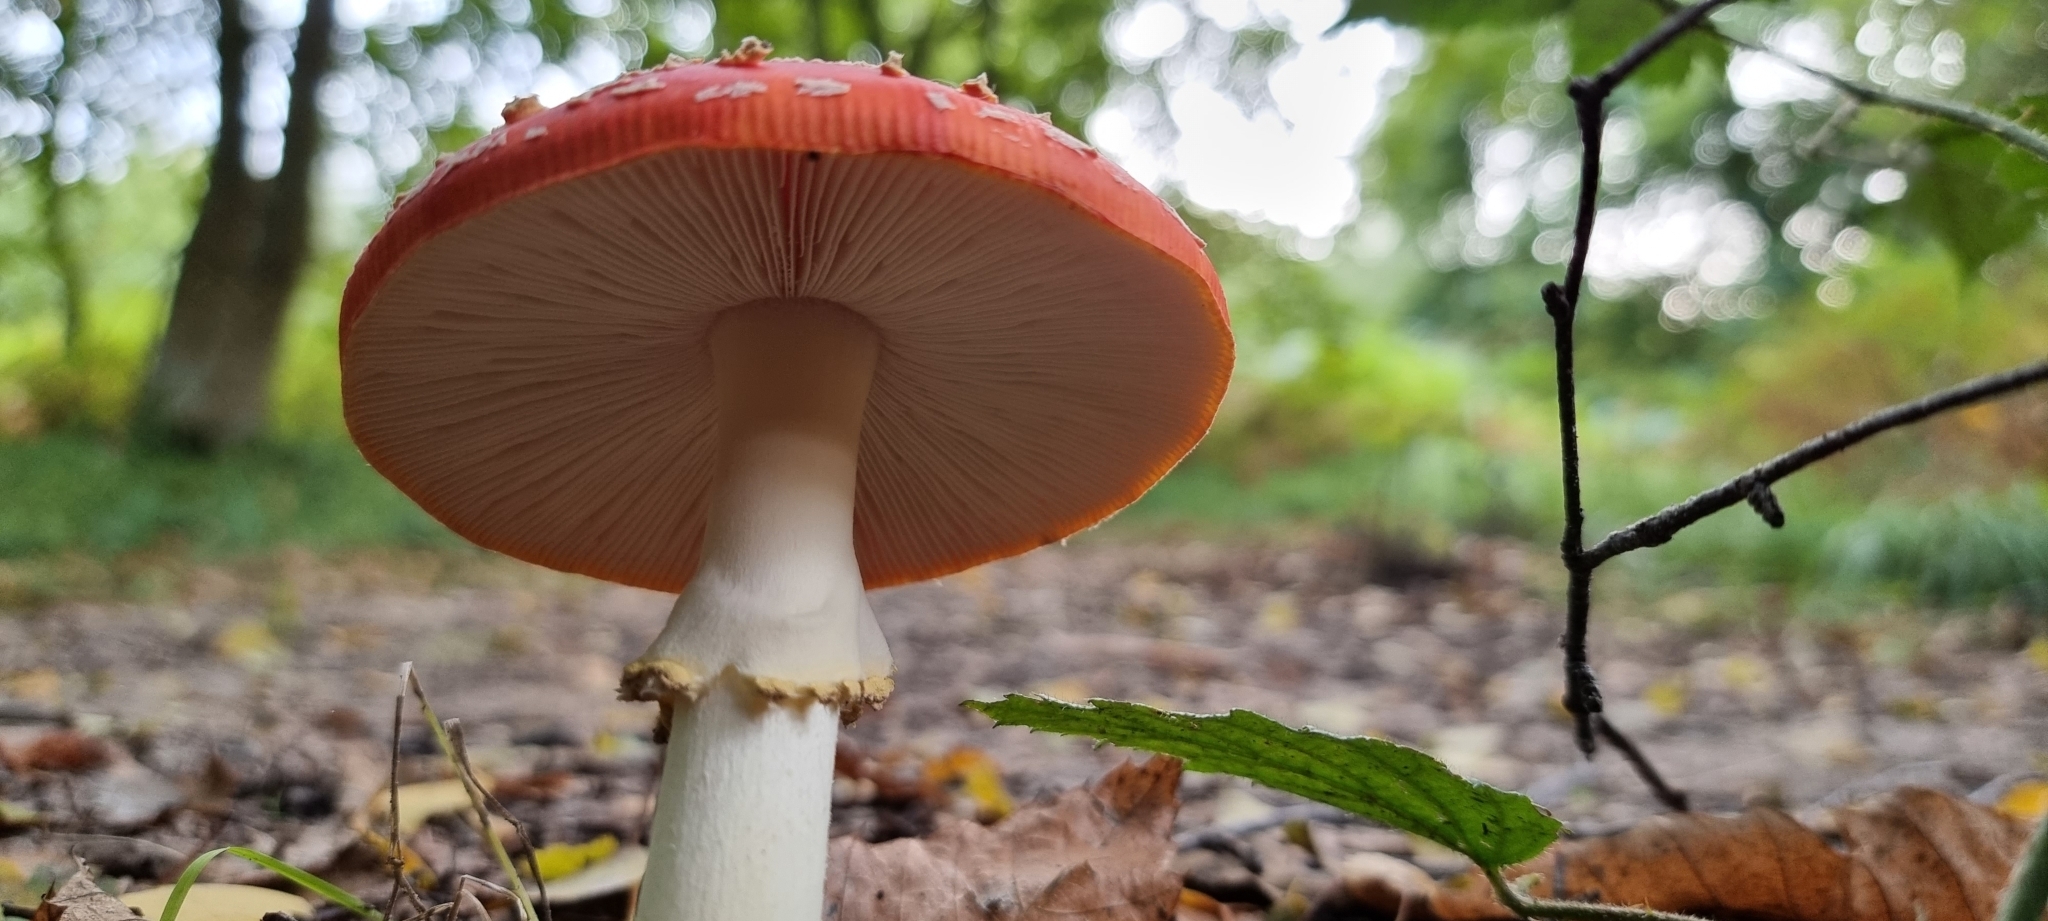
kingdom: Fungi
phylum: Basidiomycota
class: Agaricomycetes
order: Agaricales
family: Amanitaceae
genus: Amanita
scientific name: Amanita muscaria
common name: Fly agaric
